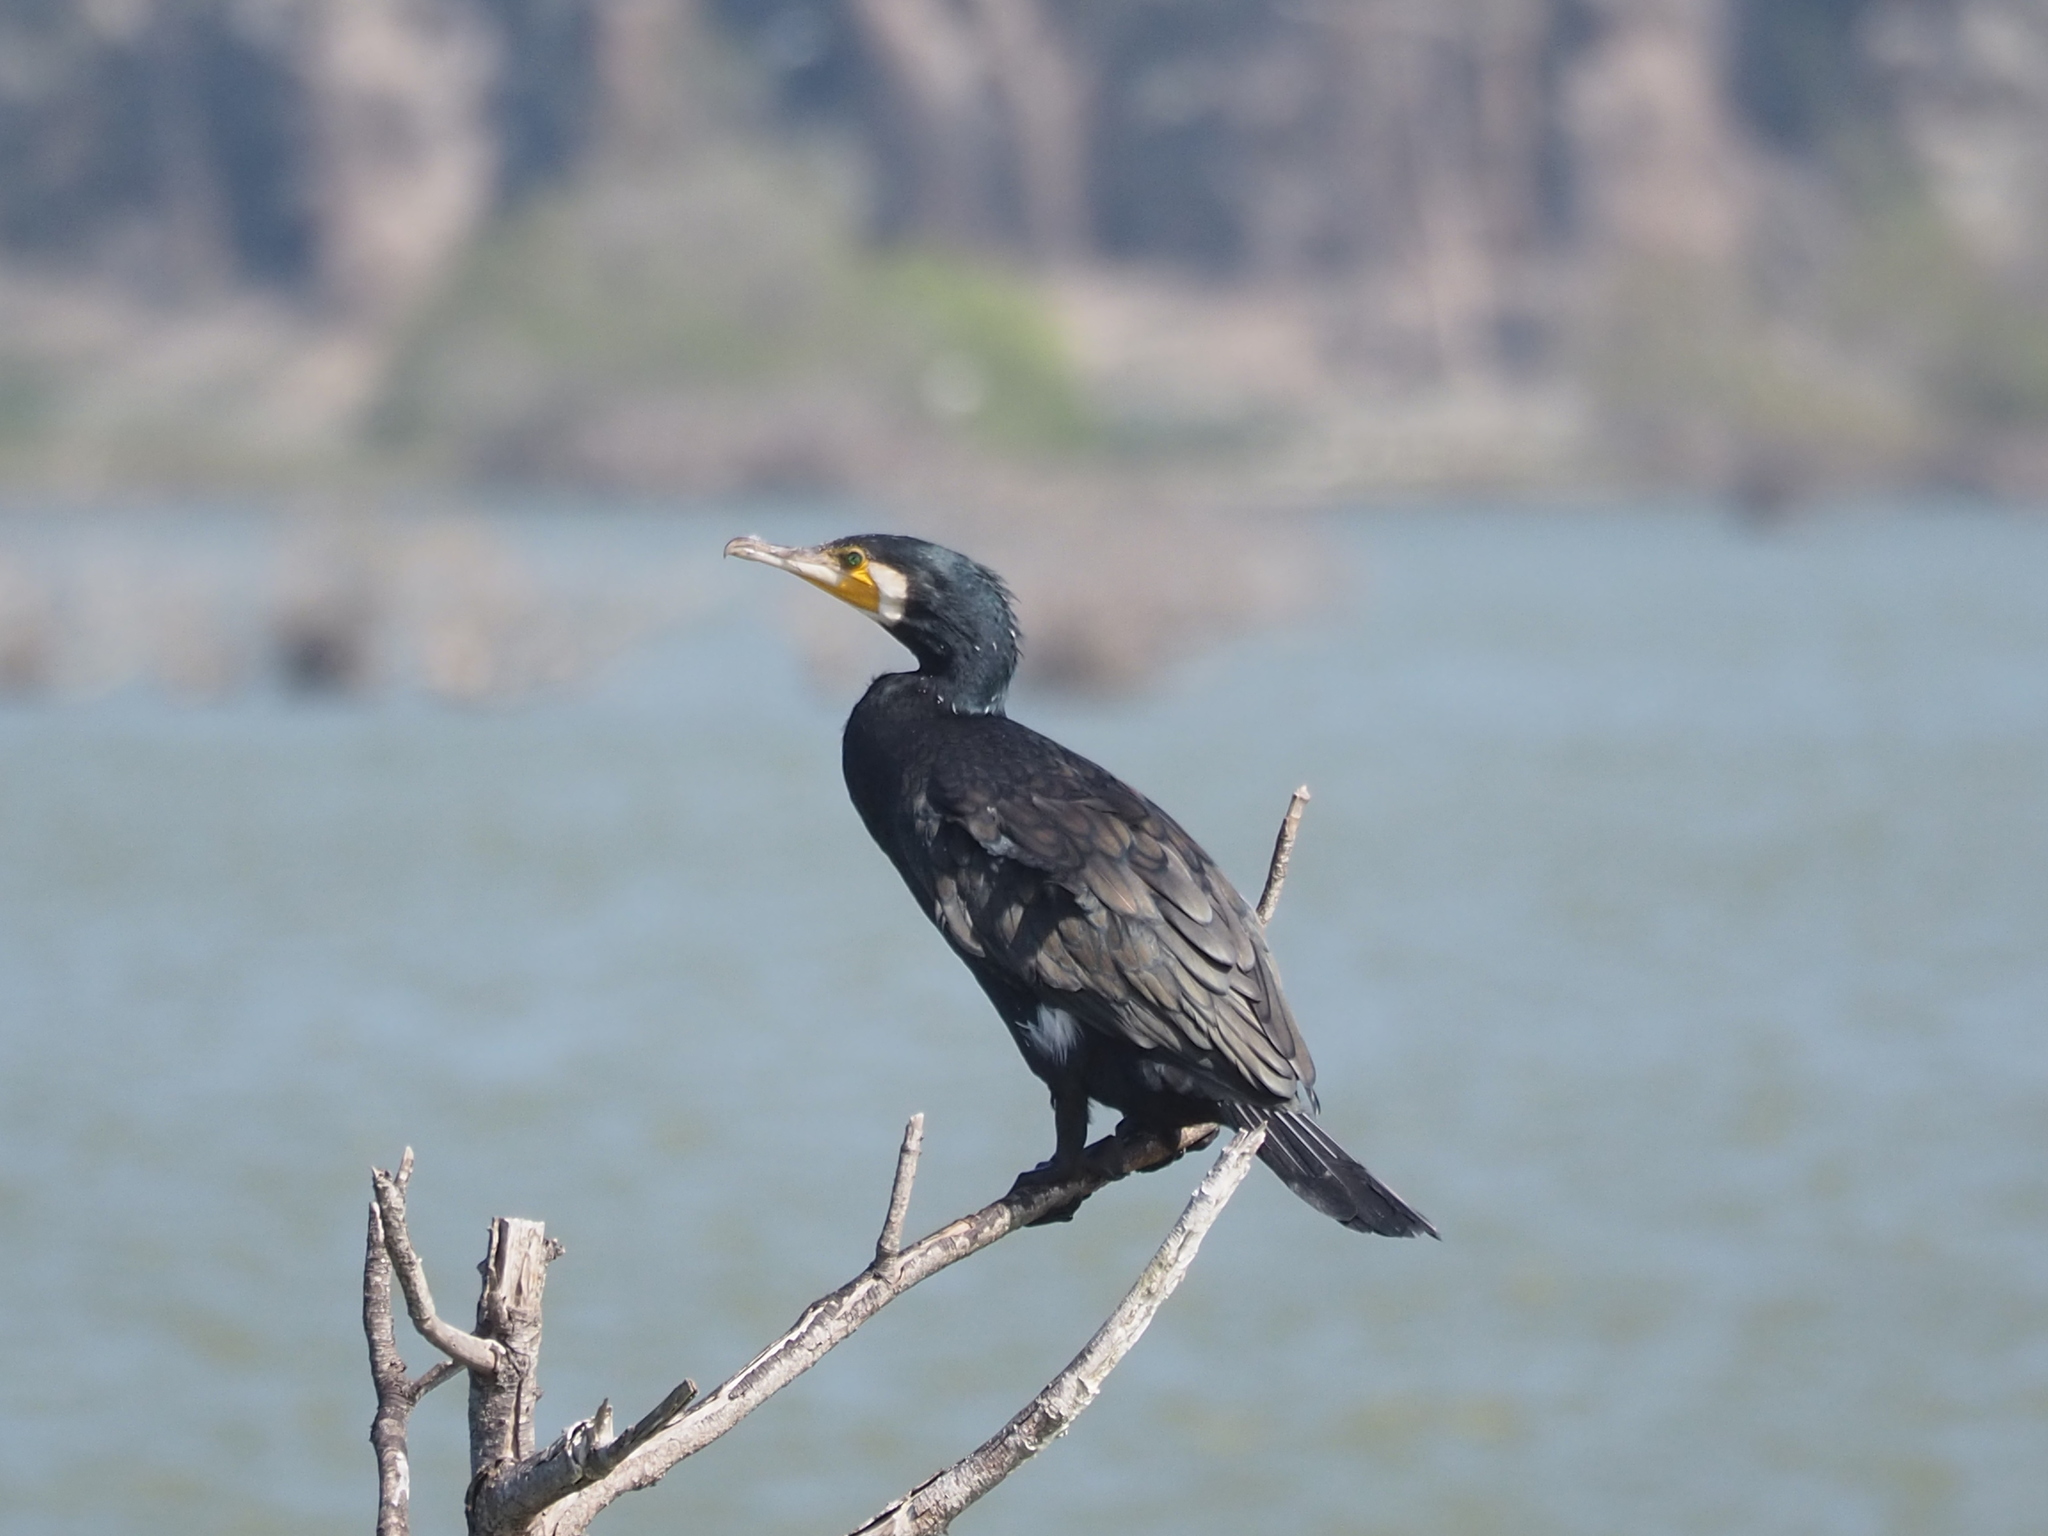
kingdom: Animalia
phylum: Chordata
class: Aves
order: Suliformes
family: Phalacrocoracidae
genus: Phalacrocorax
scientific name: Phalacrocorax carbo
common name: Great cormorant
